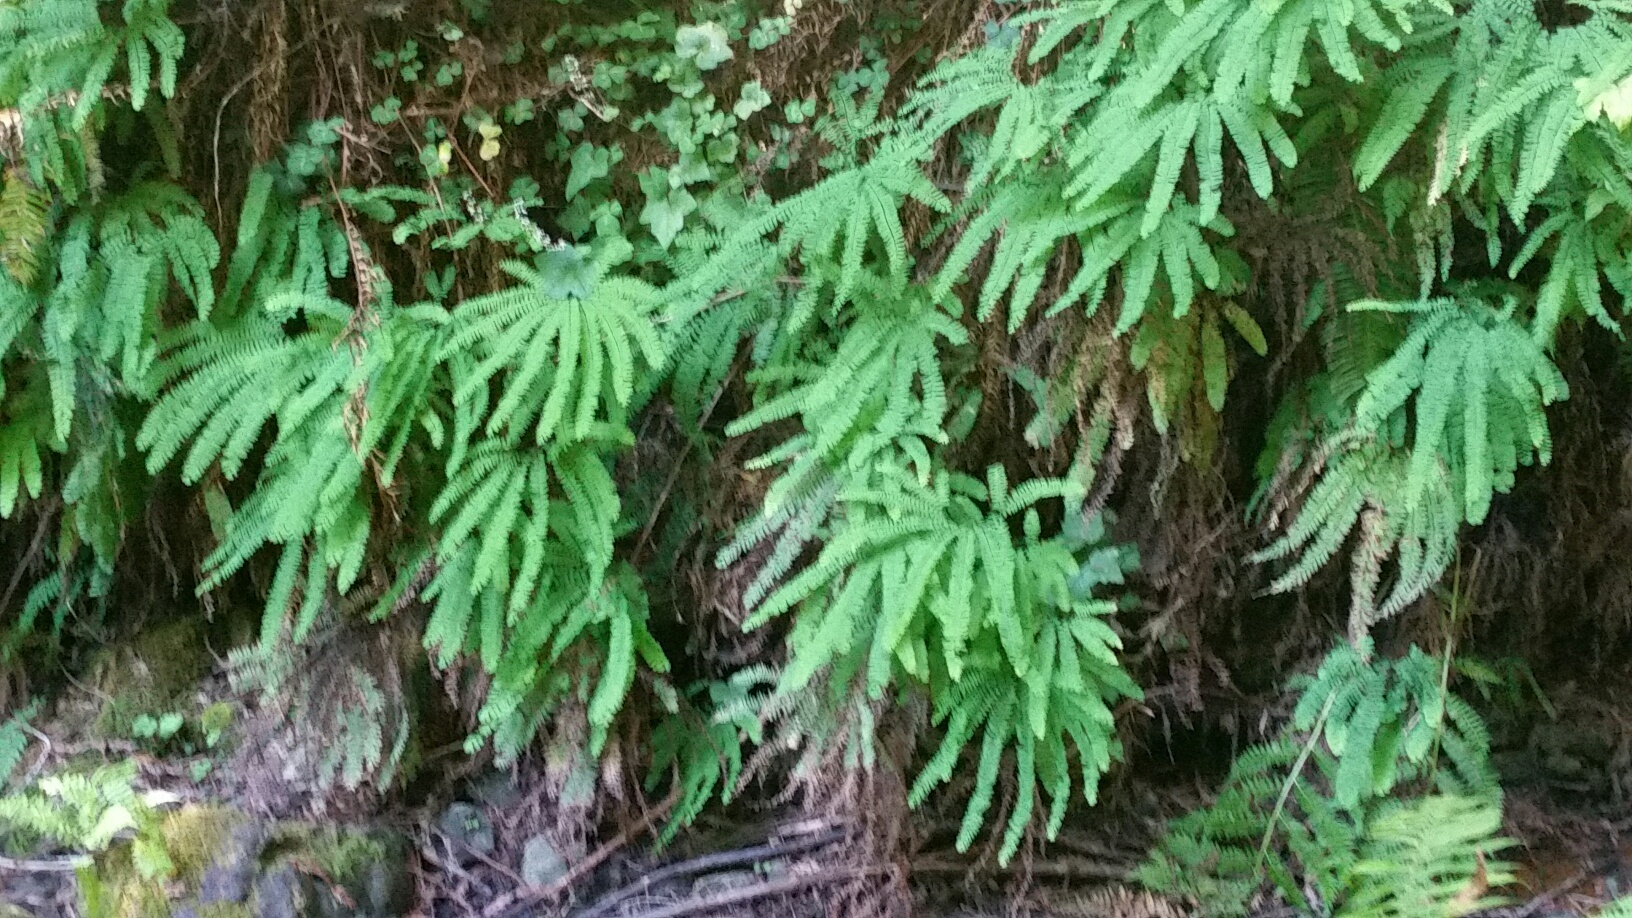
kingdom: Plantae
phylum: Tracheophyta
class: Polypodiopsida
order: Polypodiales
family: Pteridaceae
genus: Adiantum
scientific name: Adiantum aleuticum
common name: Aleutian maidenhair fern
